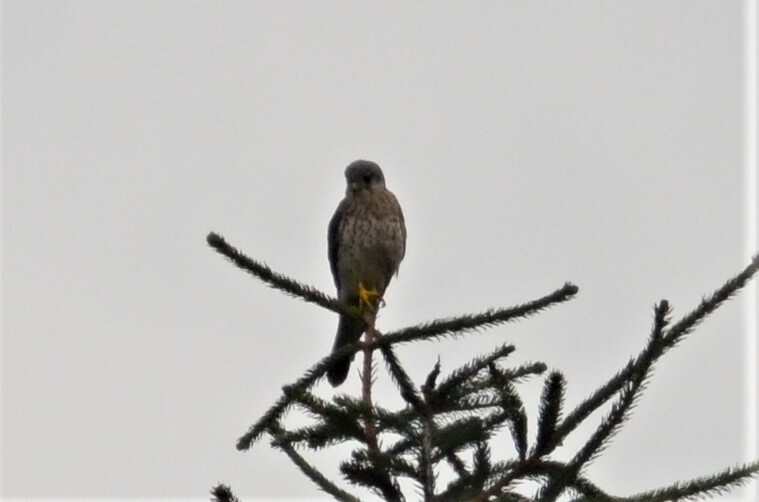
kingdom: Animalia
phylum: Chordata
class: Aves
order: Falconiformes
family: Falconidae
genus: Falco
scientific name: Falco tinnunculus
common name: Common kestrel
